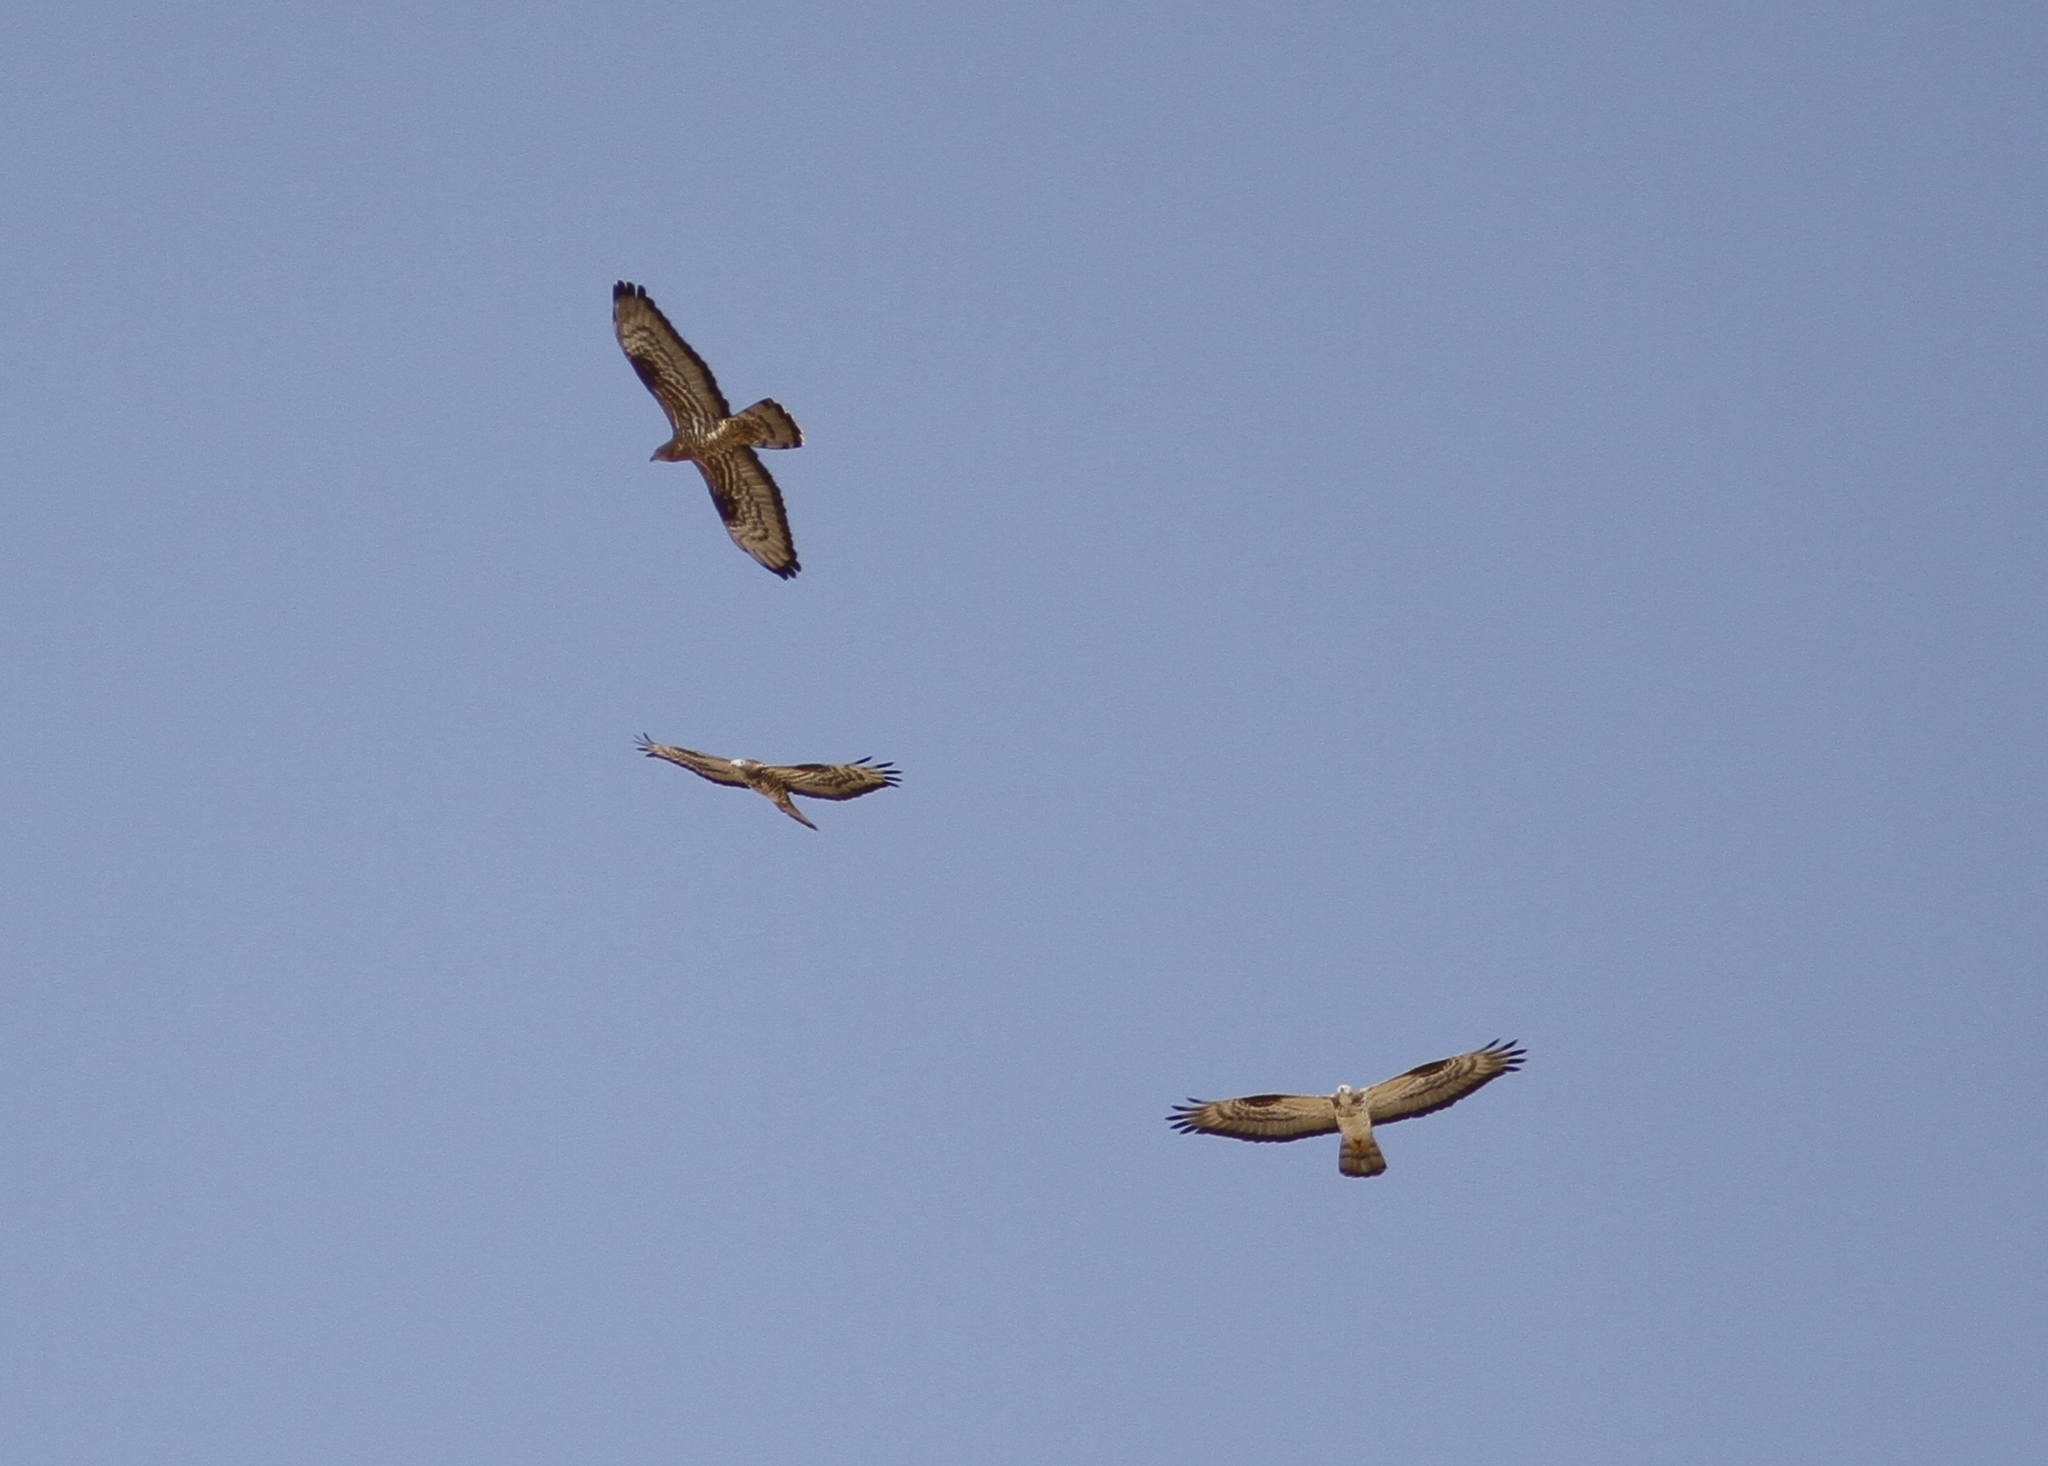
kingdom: Animalia
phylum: Chordata
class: Aves
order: Accipitriformes
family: Accipitridae
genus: Pernis
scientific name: Pernis apivorus
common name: European honey buzzard
